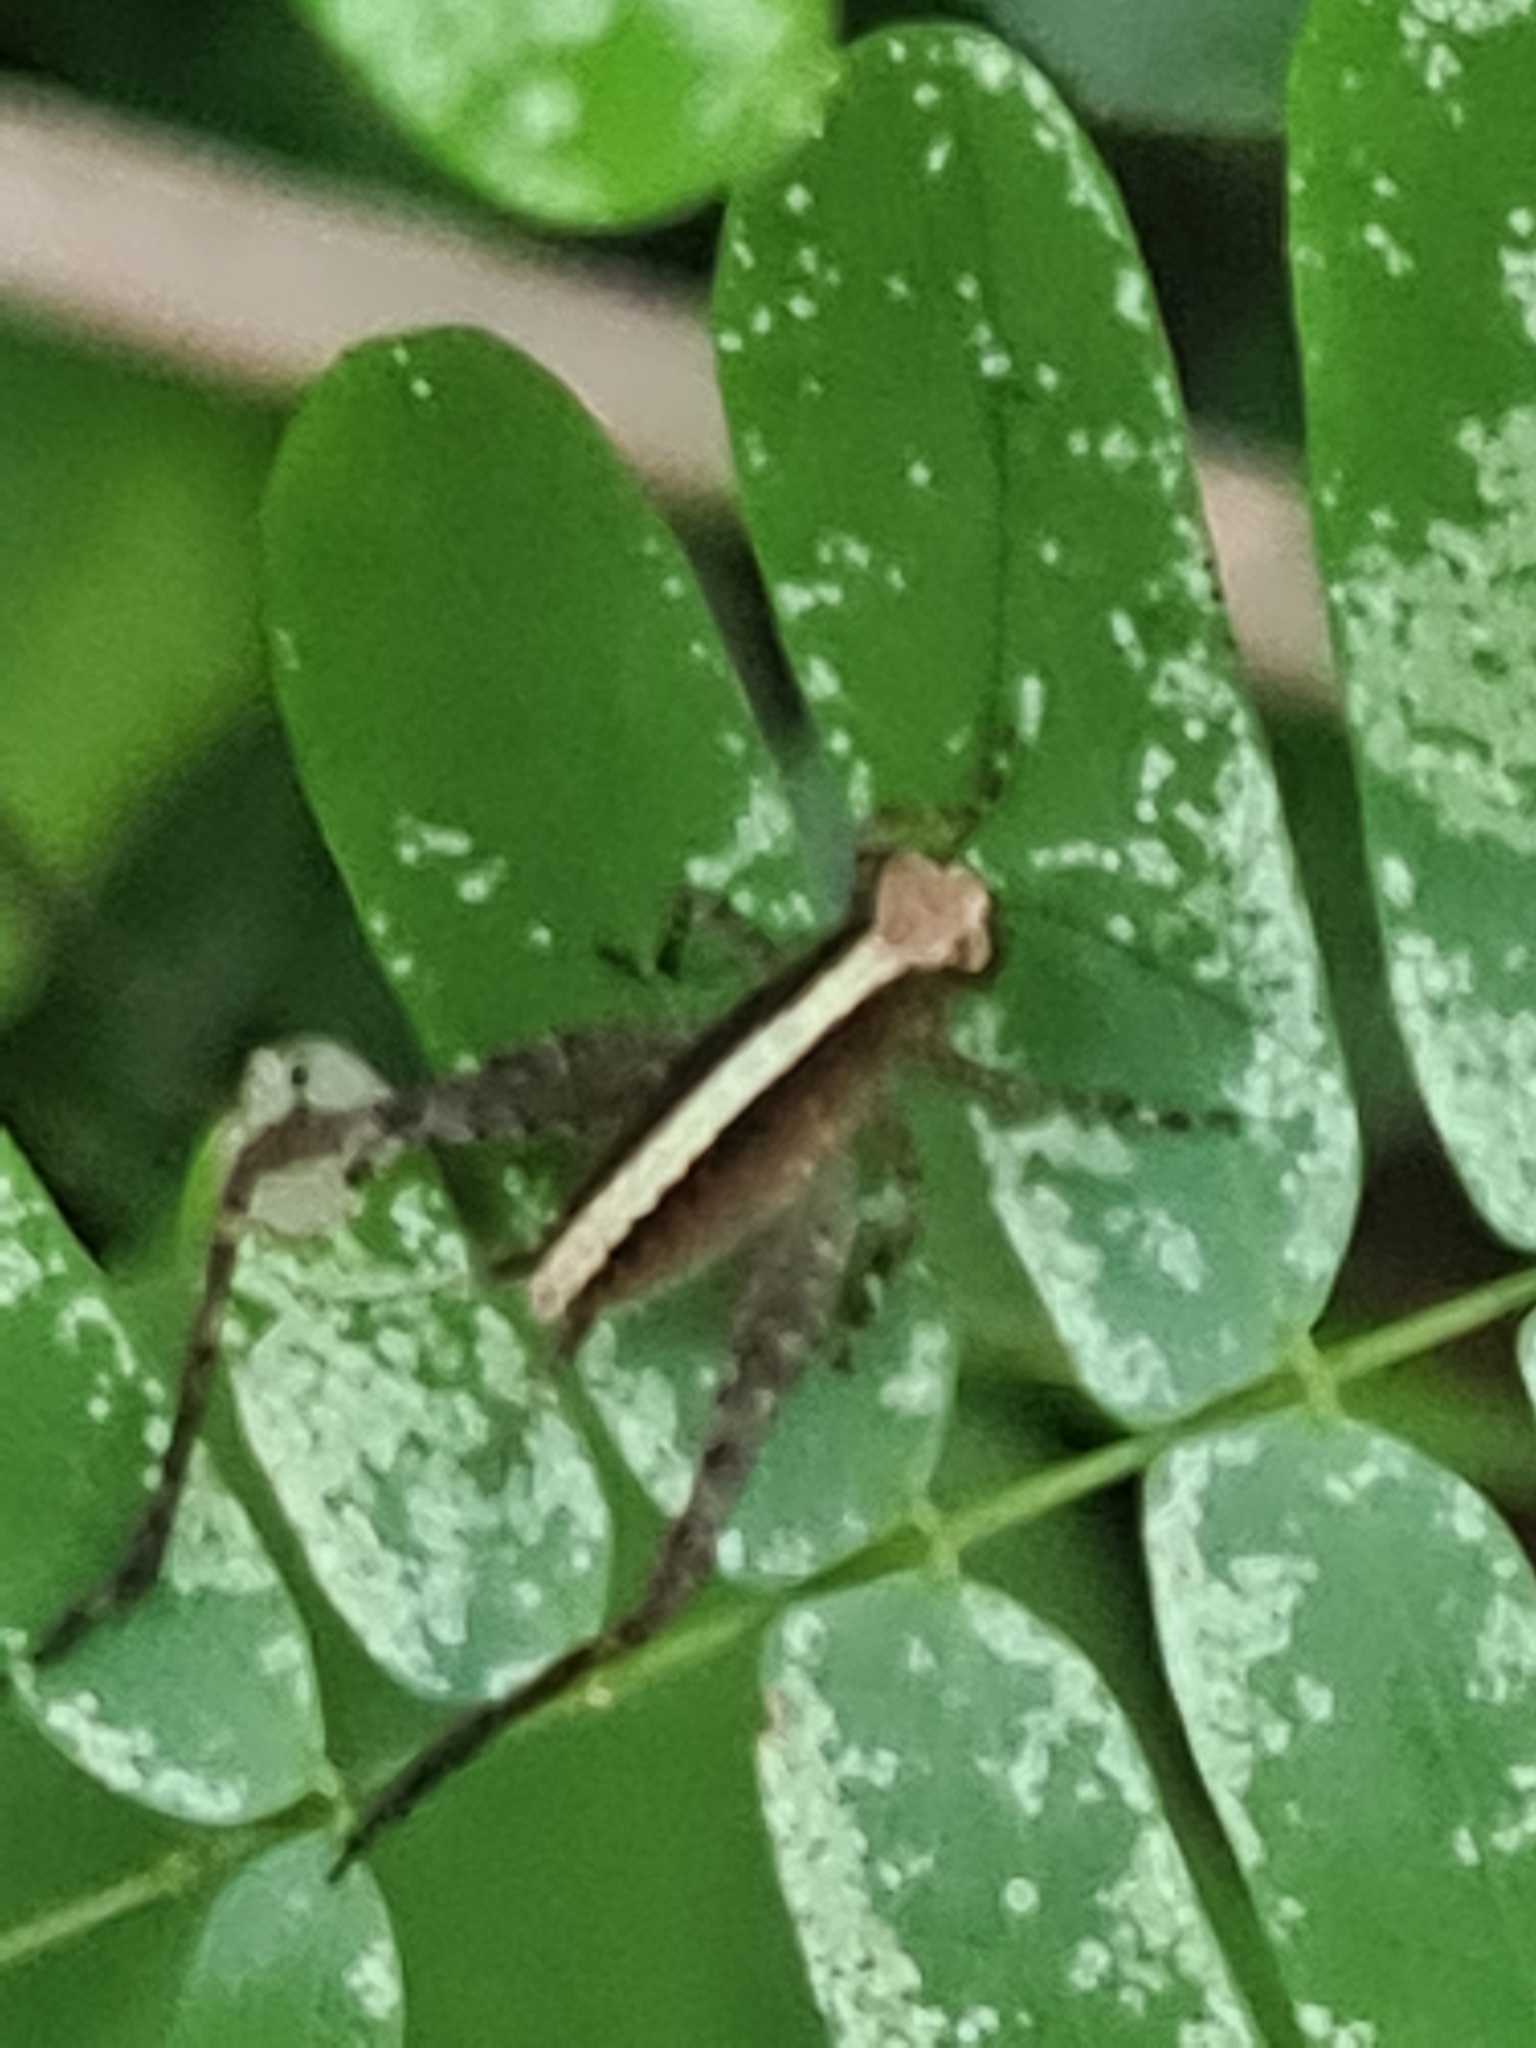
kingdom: Animalia
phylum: Arthropoda
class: Insecta
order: Orthoptera
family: Gryllidae
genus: Eneoptera
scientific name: Eneoptera surinamensis
